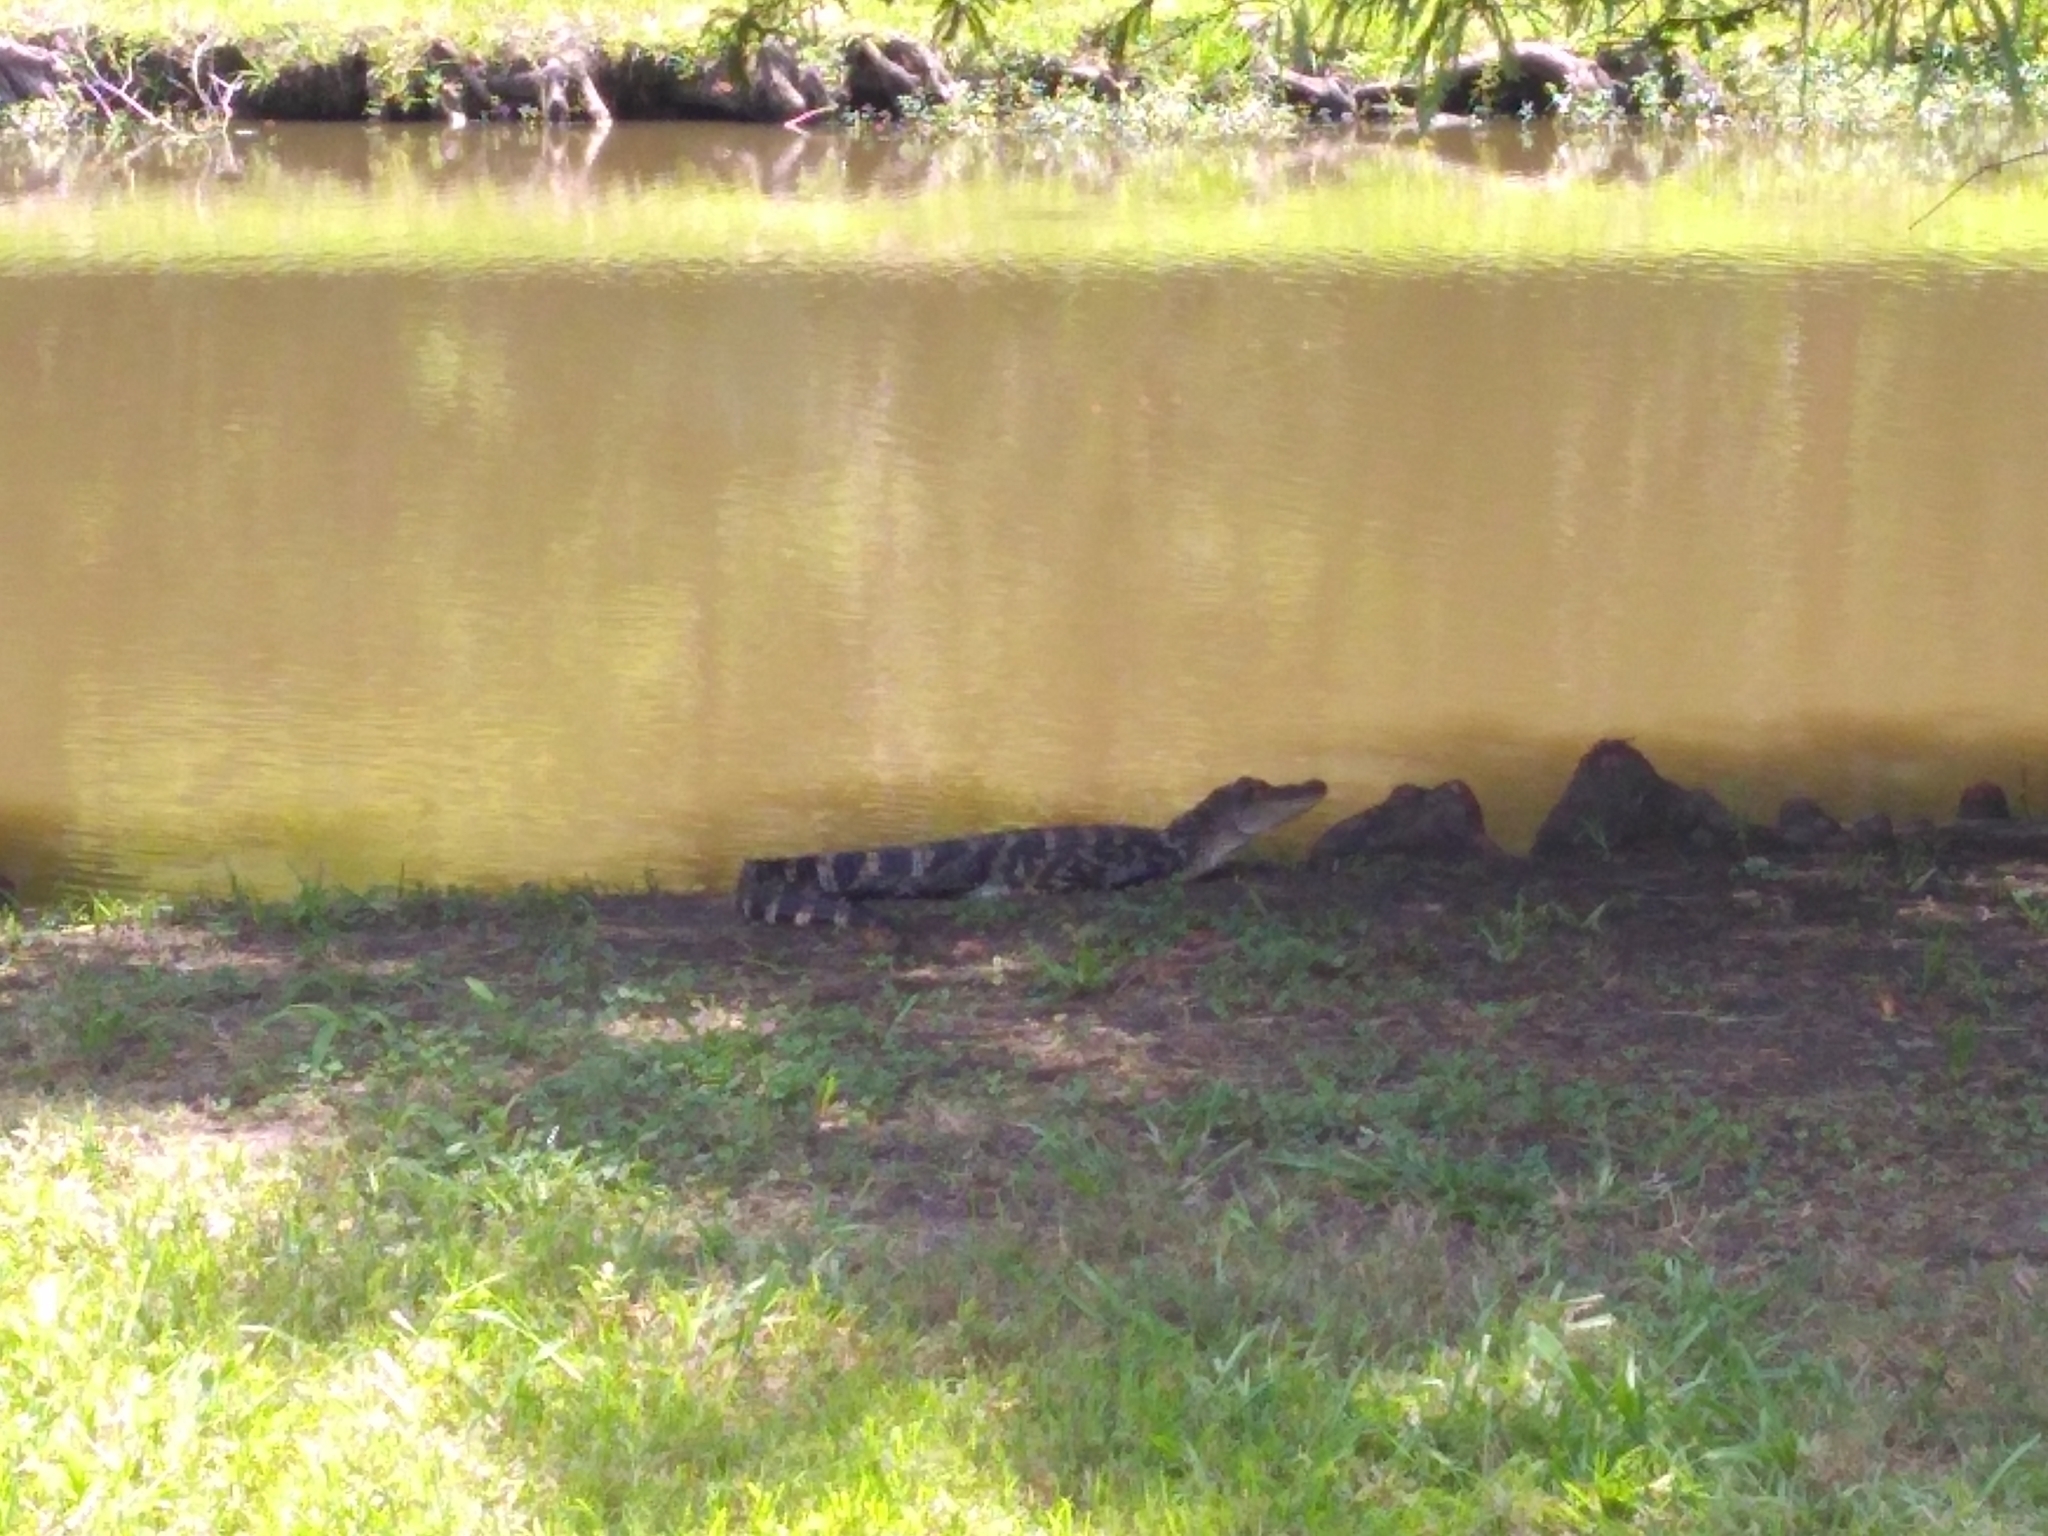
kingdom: Animalia
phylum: Chordata
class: Crocodylia
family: Alligatoridae
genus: Alligator
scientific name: Alligator mississippiensis
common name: American alligator
